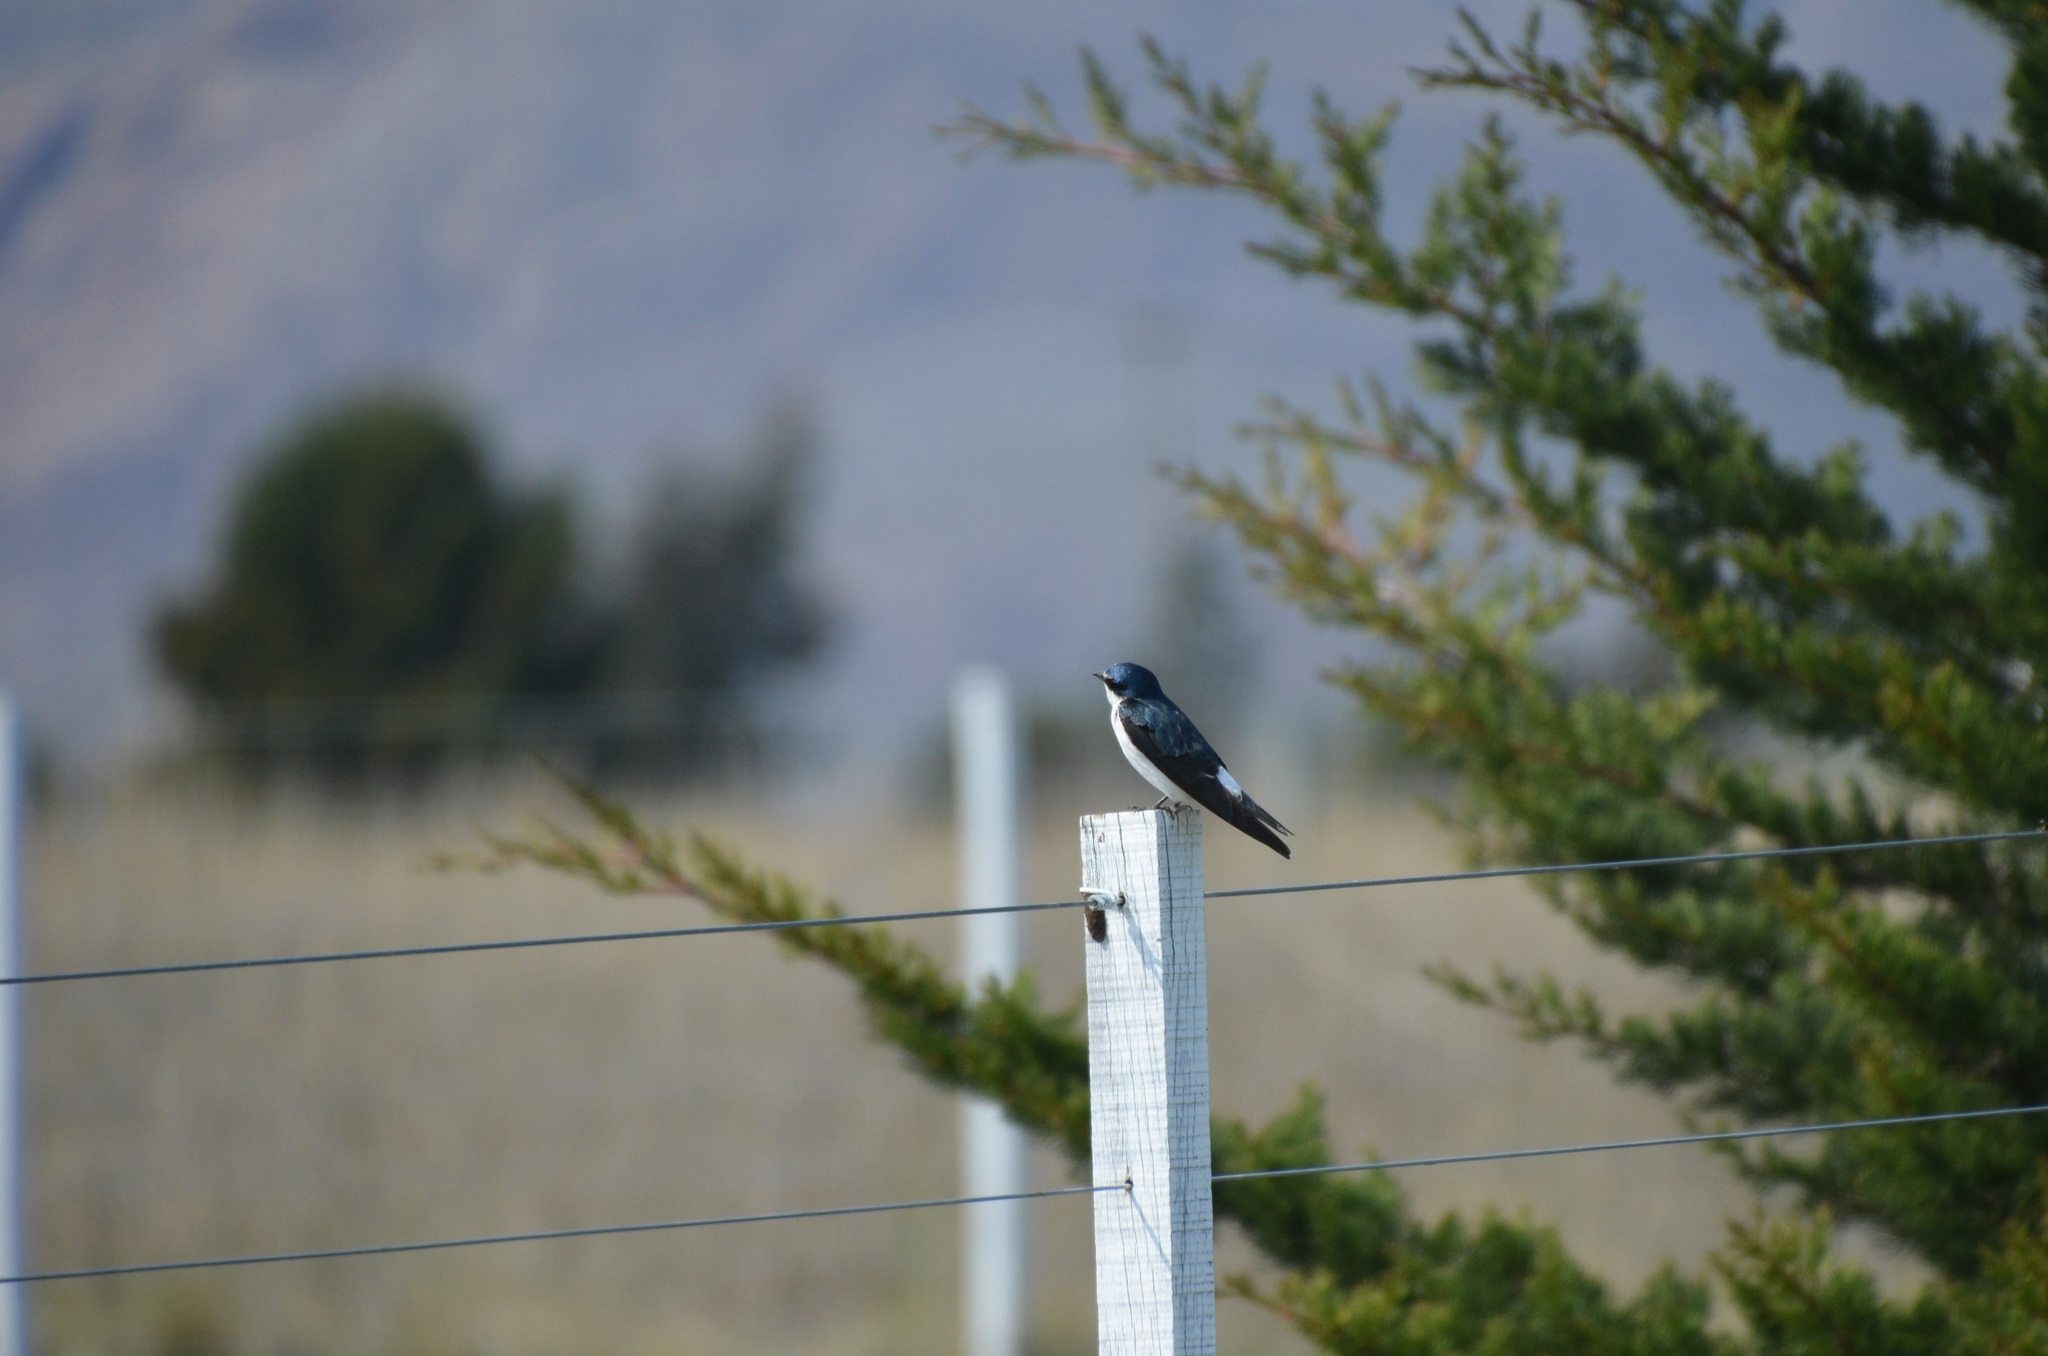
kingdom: Animalia
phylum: Chordata
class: Aves
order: Passeriformes
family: Hirundinidae
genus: Tachycineta
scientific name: Tachycineta leucorrhoa
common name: White-rumped swallow
